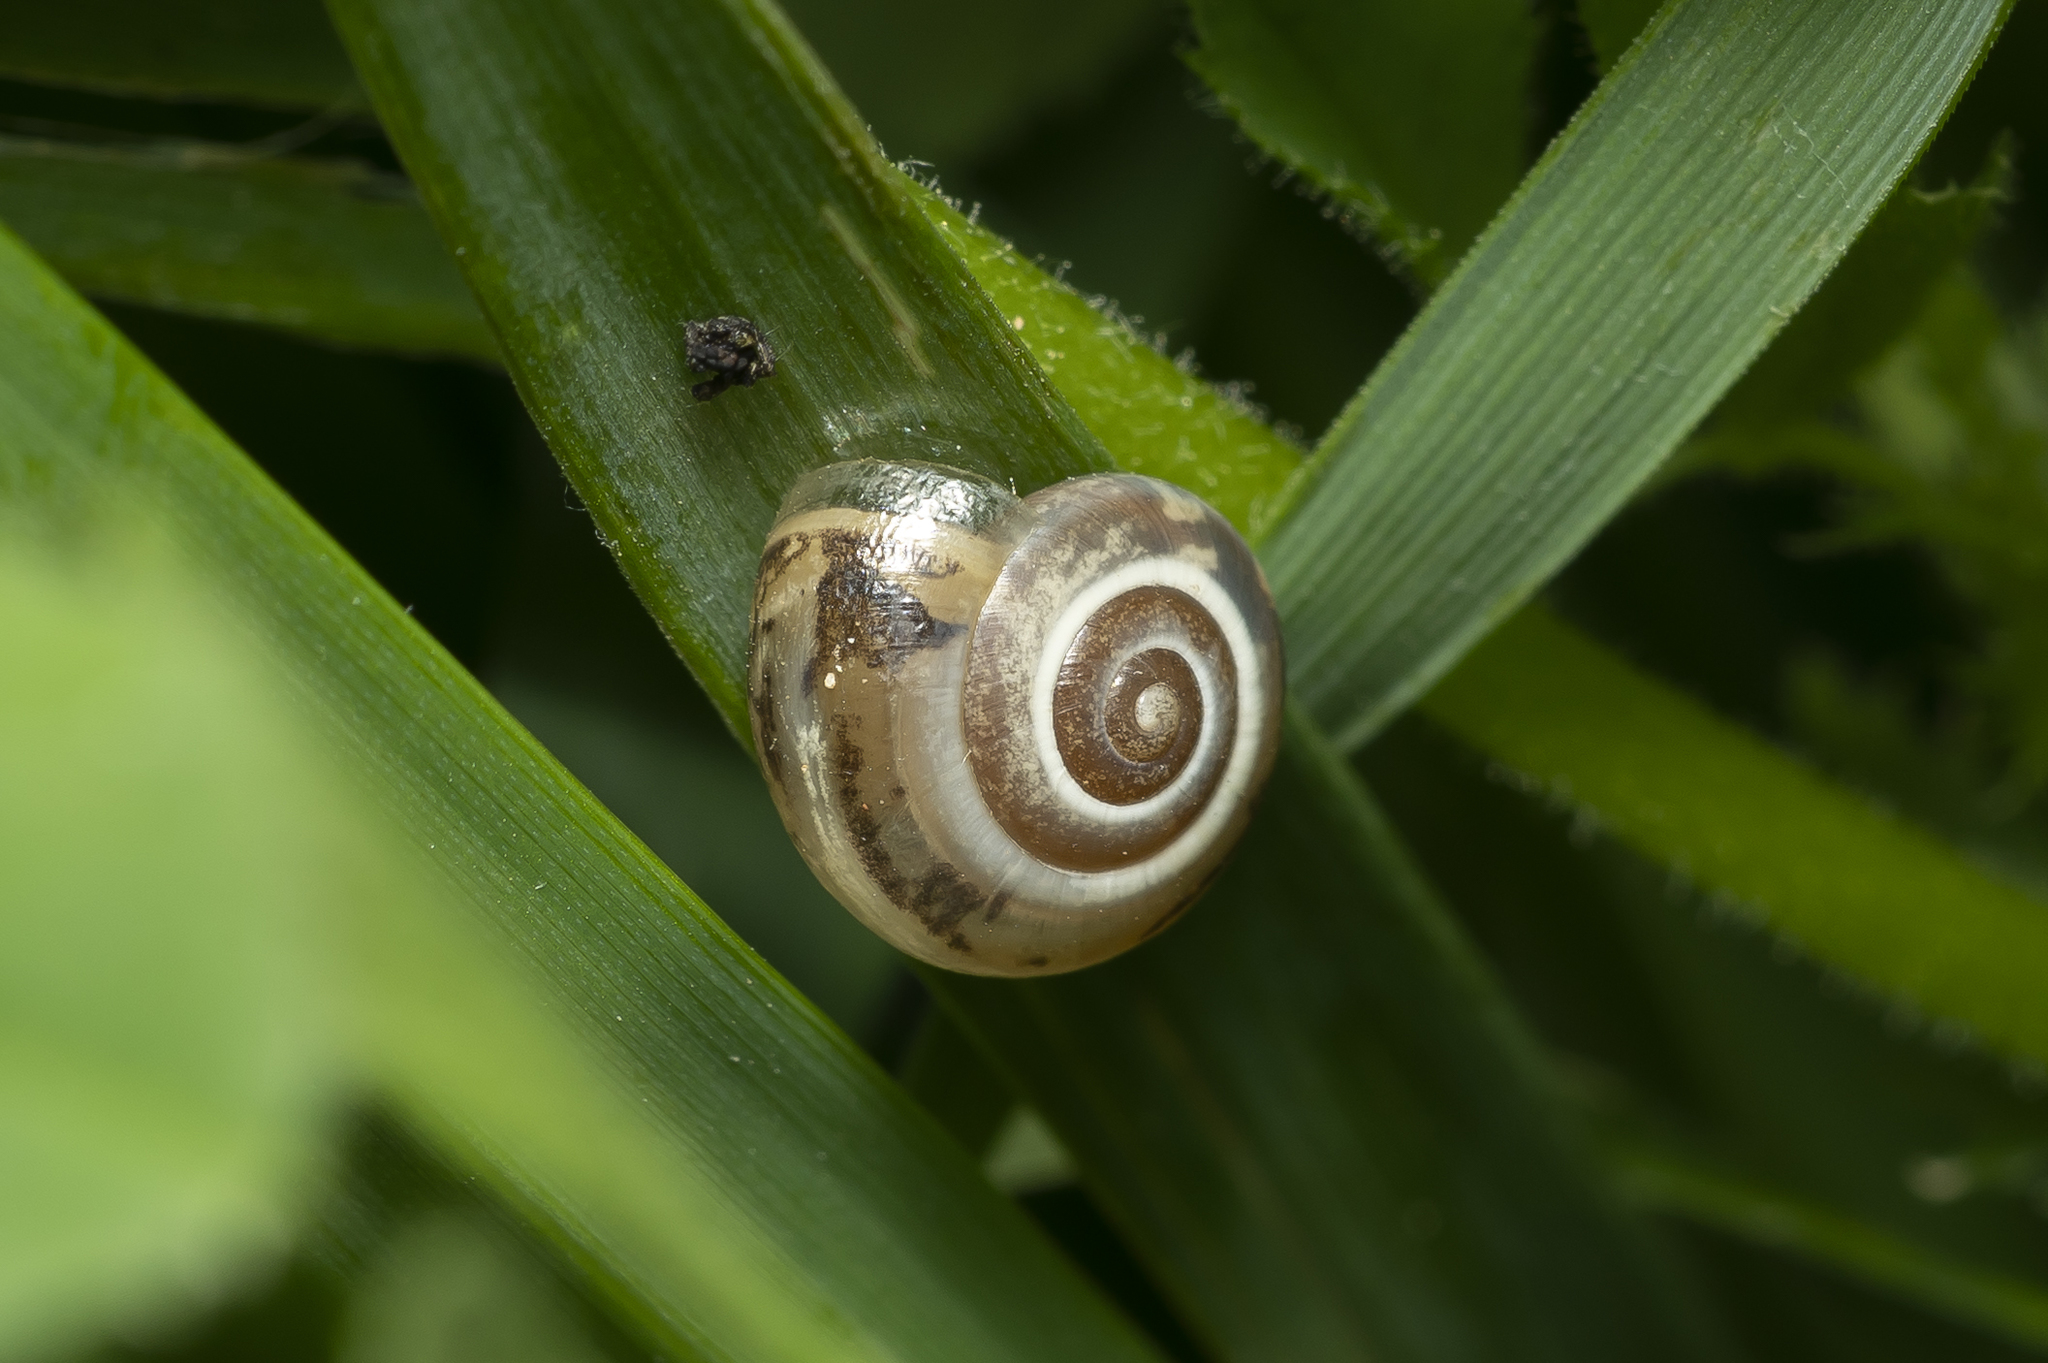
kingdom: Animalia
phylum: Mollusca
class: Gastropoda
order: Stylommatophora
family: Hygromiidae
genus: Monacha
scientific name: Monacha syriaca
